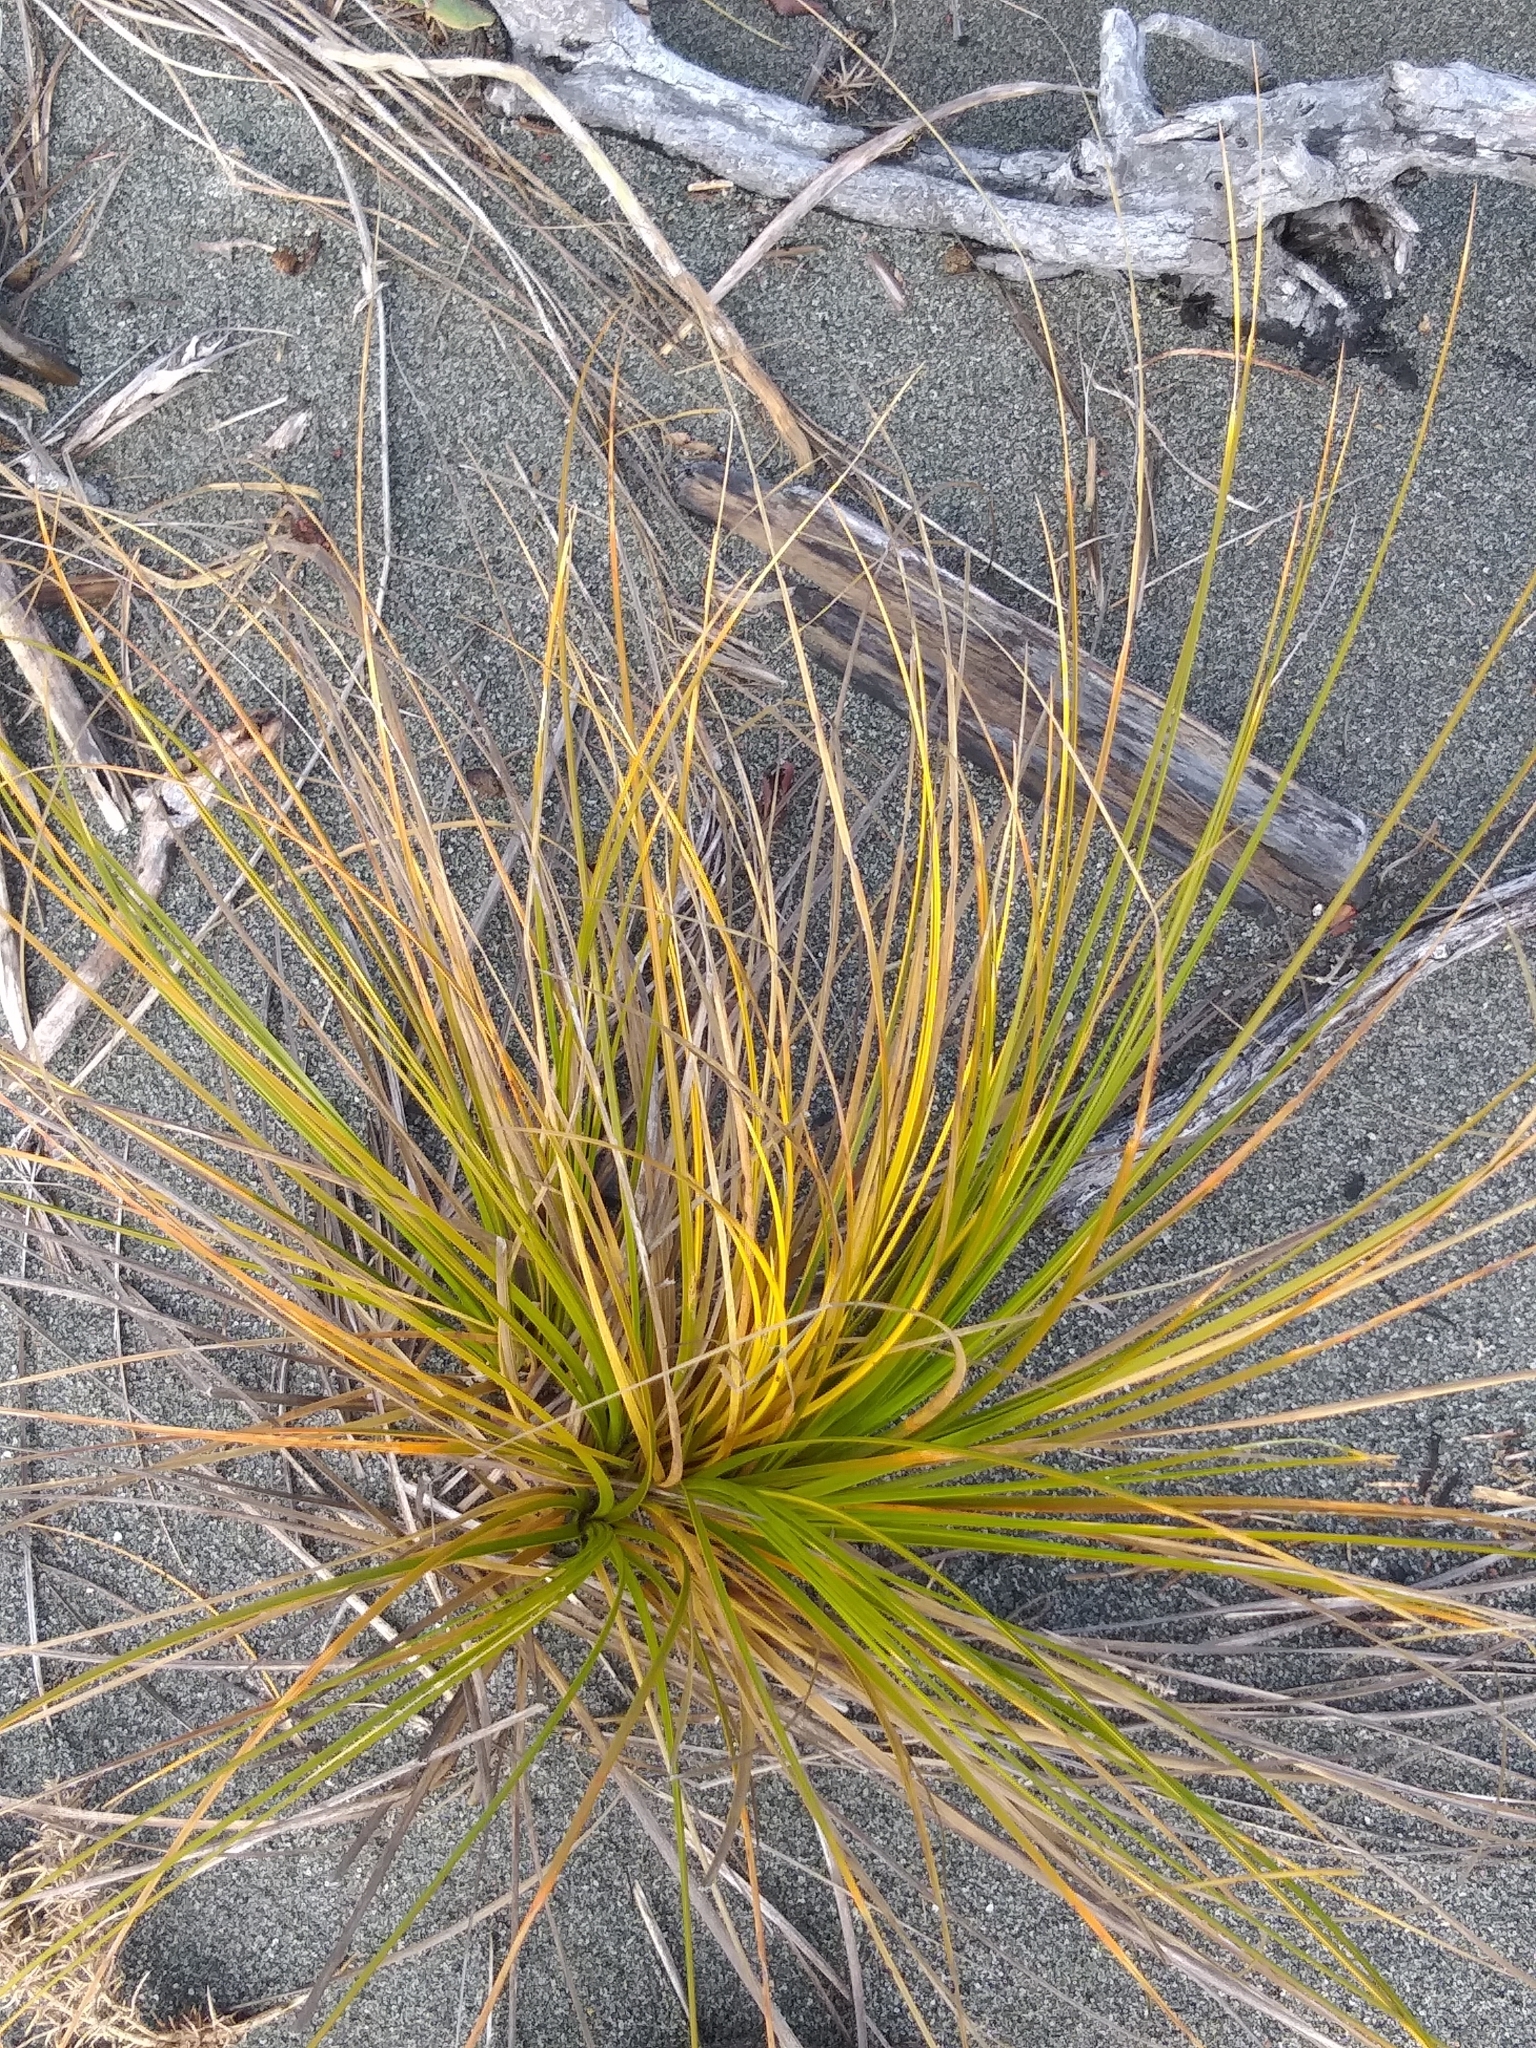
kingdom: Plantae
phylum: Tracheophyta
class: Liliopsida
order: Poales
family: Cyperaceae
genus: Ficinia
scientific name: Ficinia spiralis
